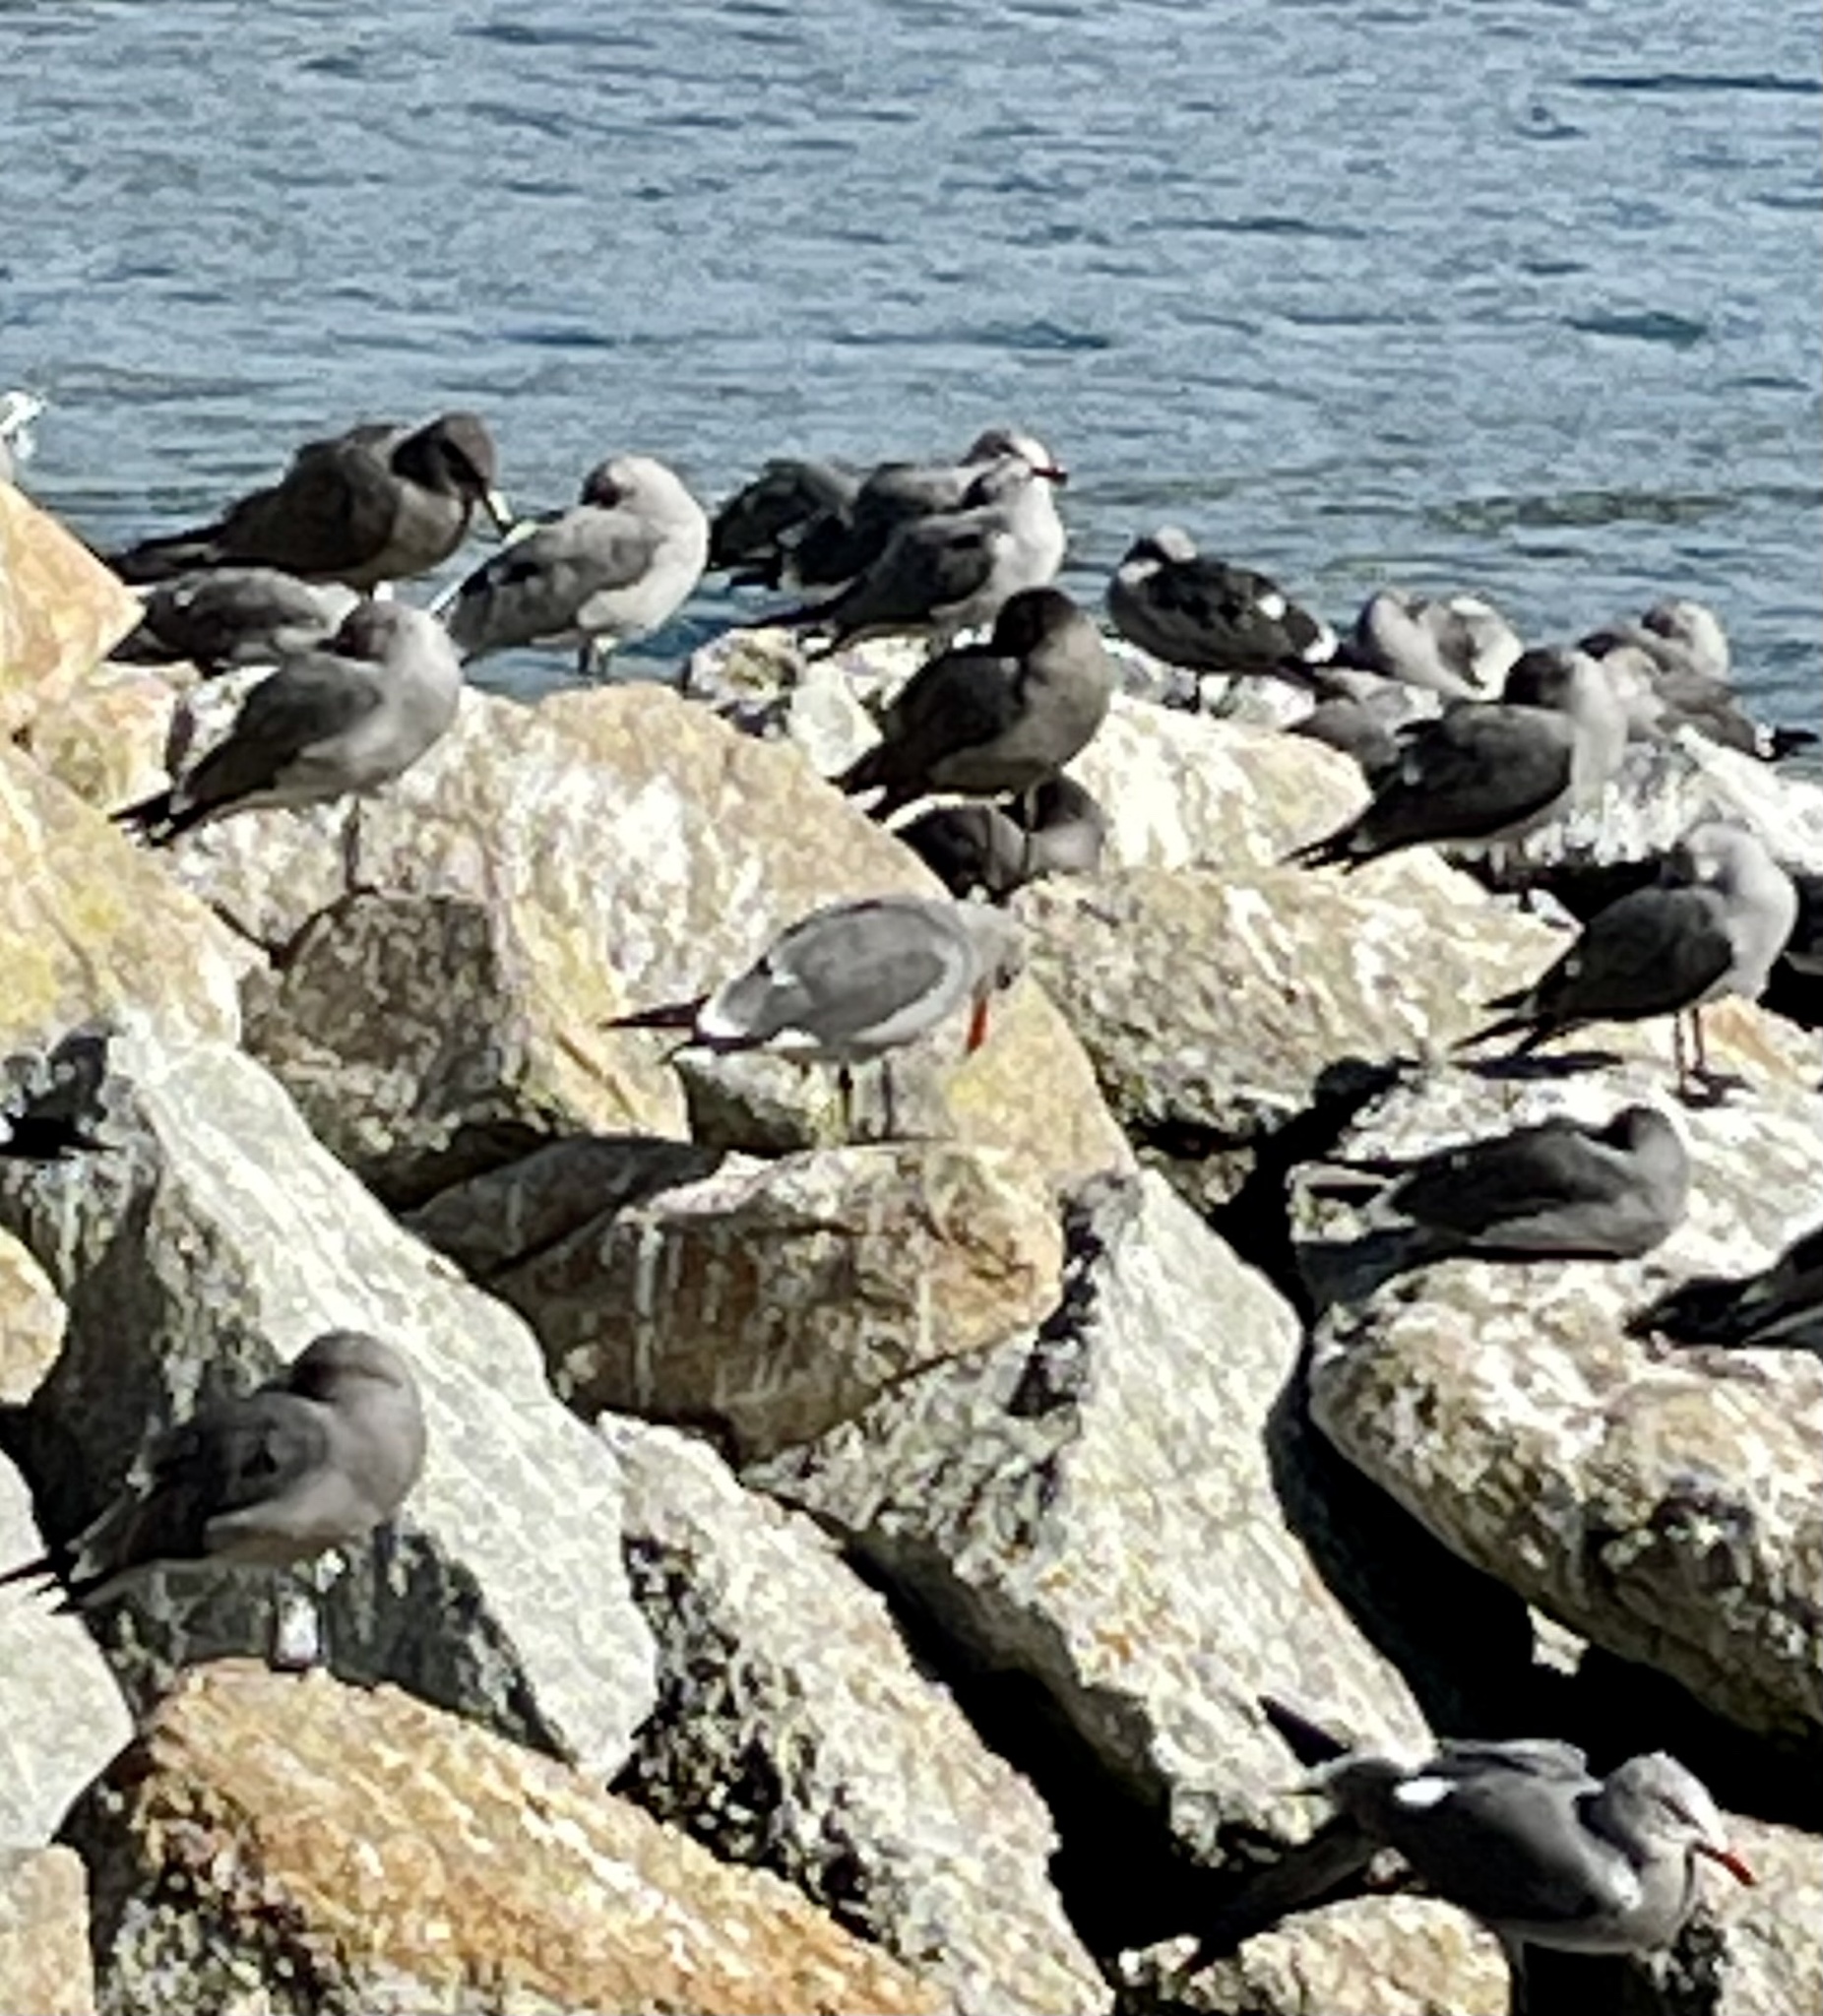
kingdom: Animalia
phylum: Chordata
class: Aves
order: Charadriiformes
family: Laridae
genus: Larus
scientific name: Larus heermanni
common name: Heermann's gull
